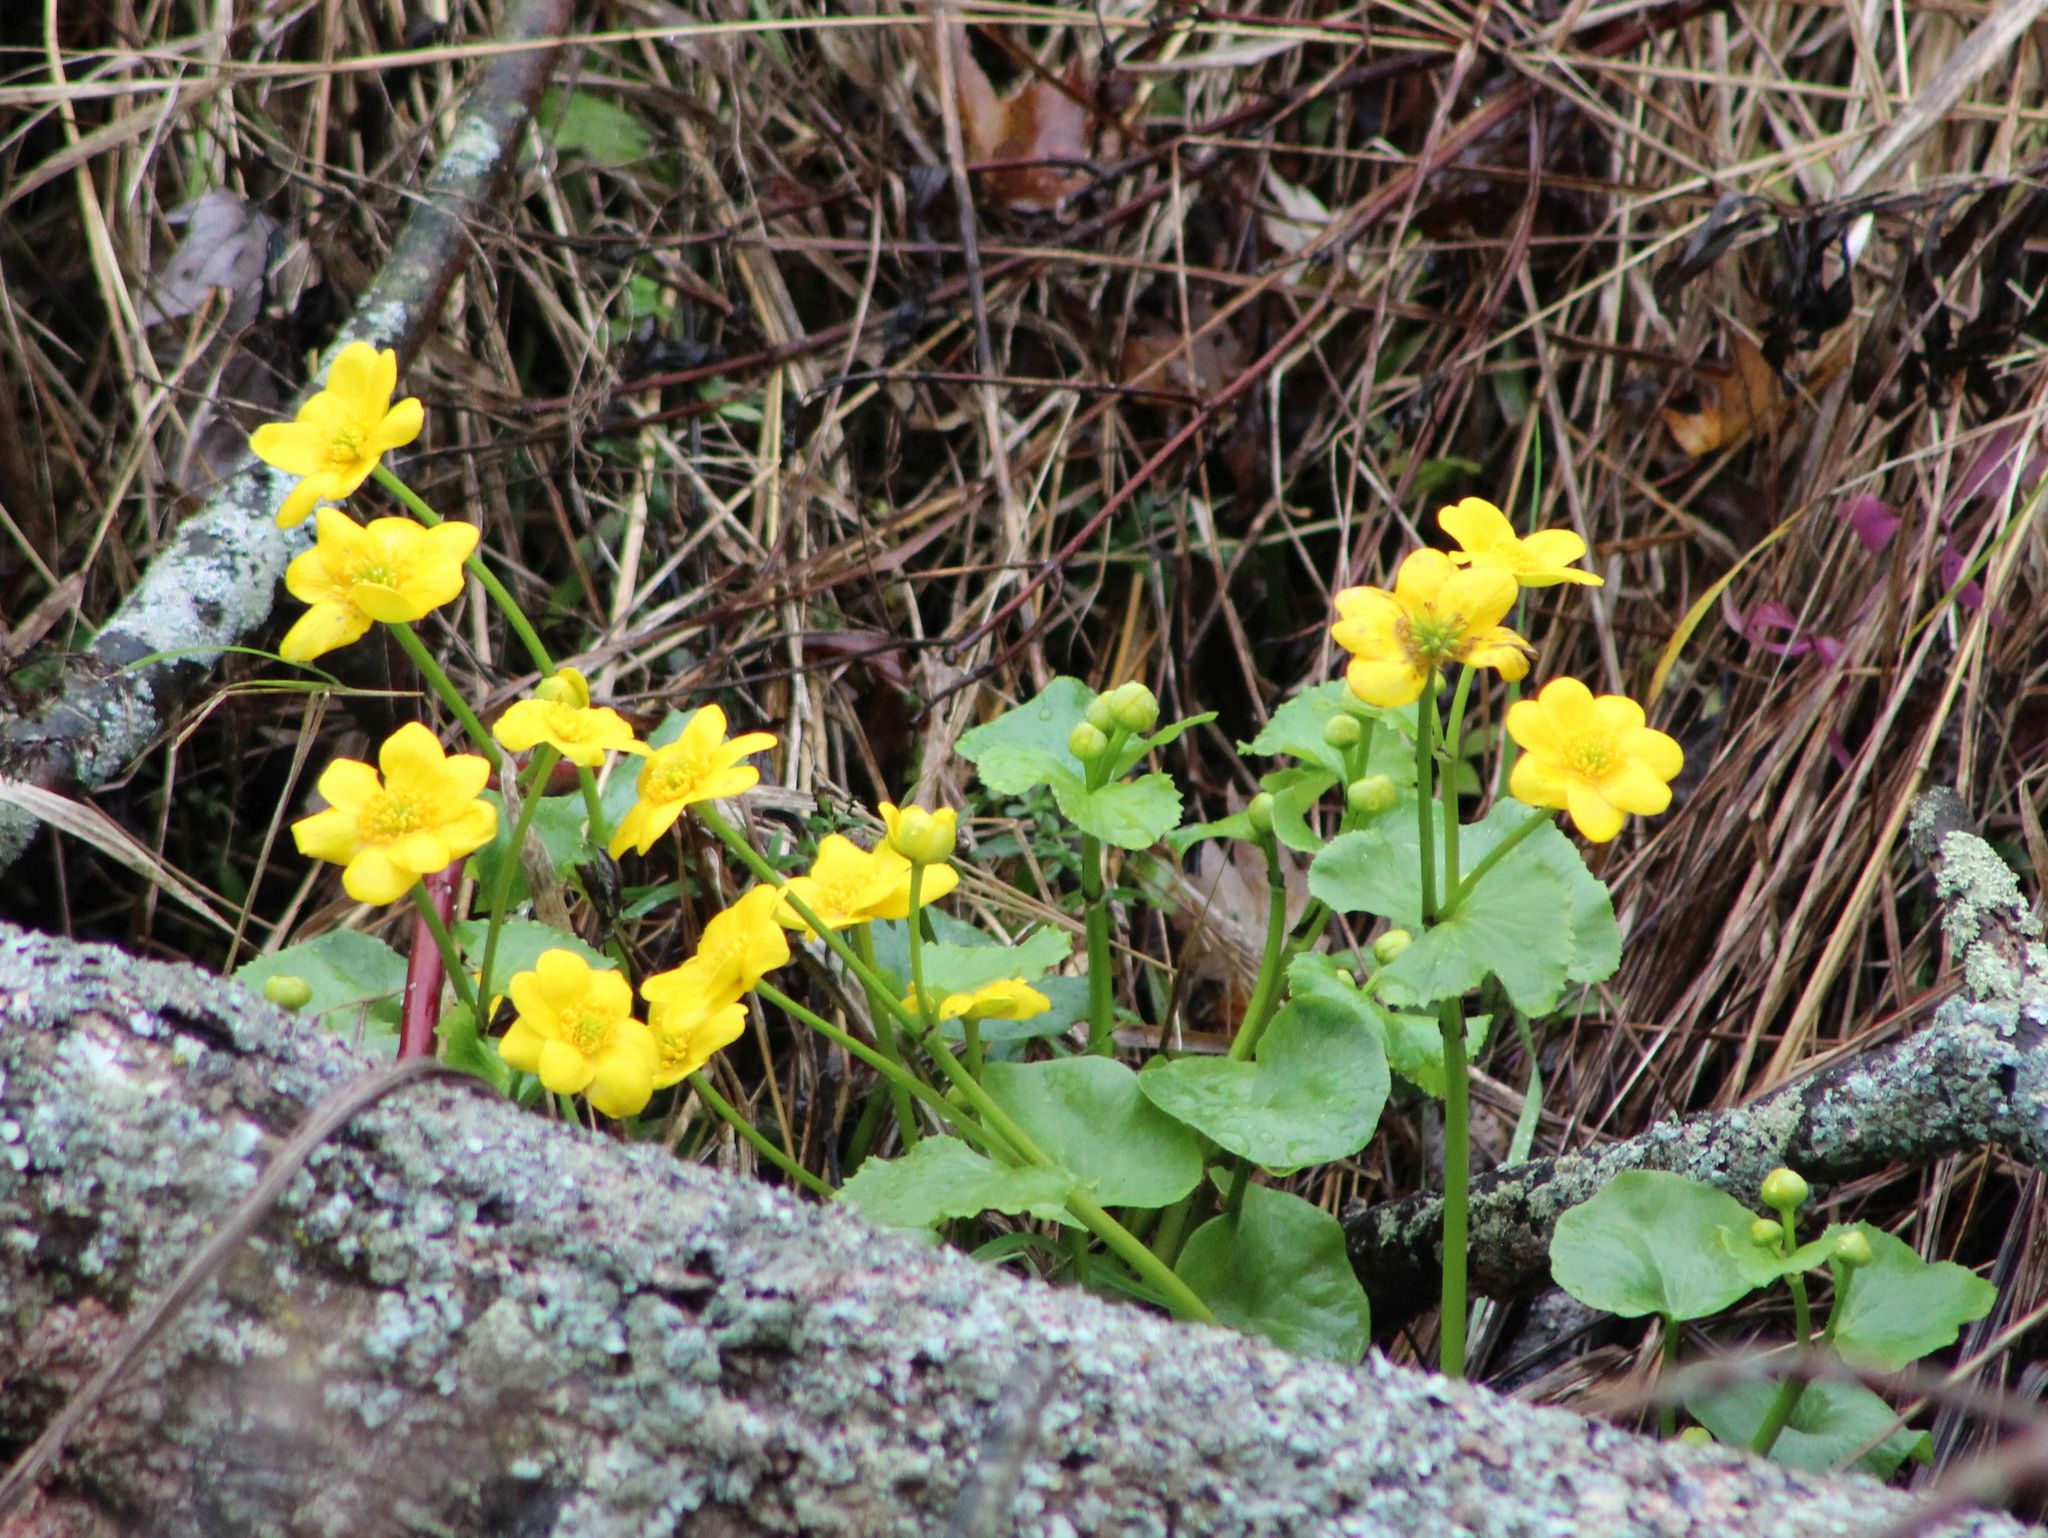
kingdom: Plantae
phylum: Tracheophyta
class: Magnoliopsida
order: Ranunculales
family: Ranunculaceae
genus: Caltha
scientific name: Caltha palustris
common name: Marsh marigold
